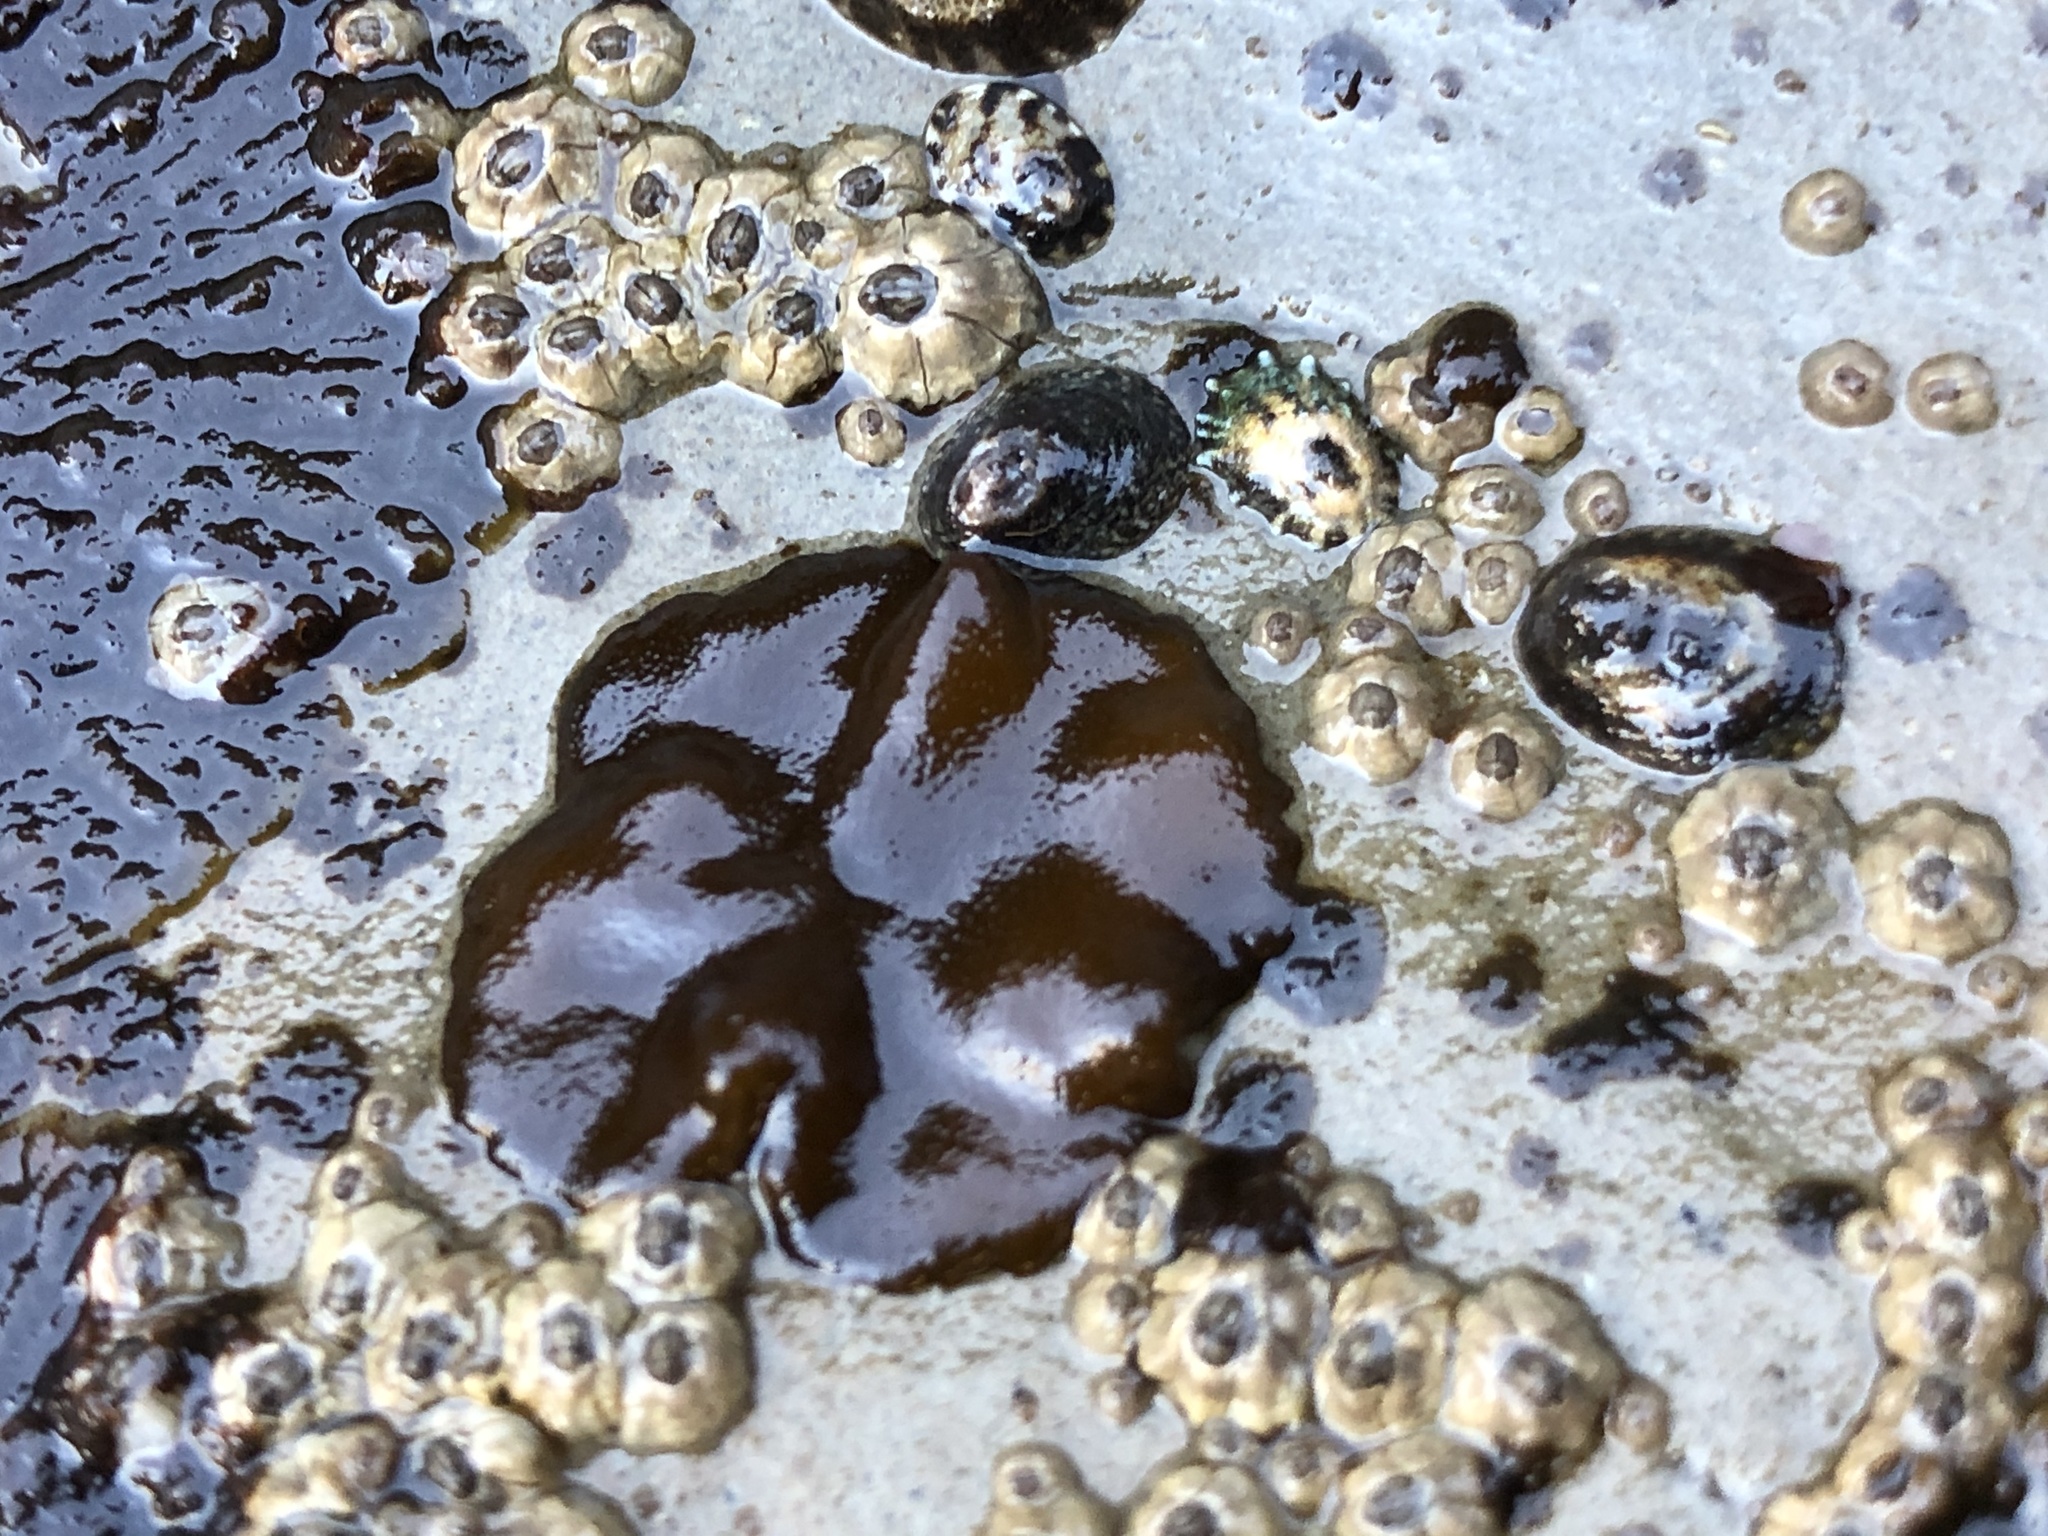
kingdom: Chromista
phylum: Ochrophyta
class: Phaeophyceae
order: Ectocarpales
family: Petrospongiaceae
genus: Petrospongium
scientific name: Petrospongium rugosum
